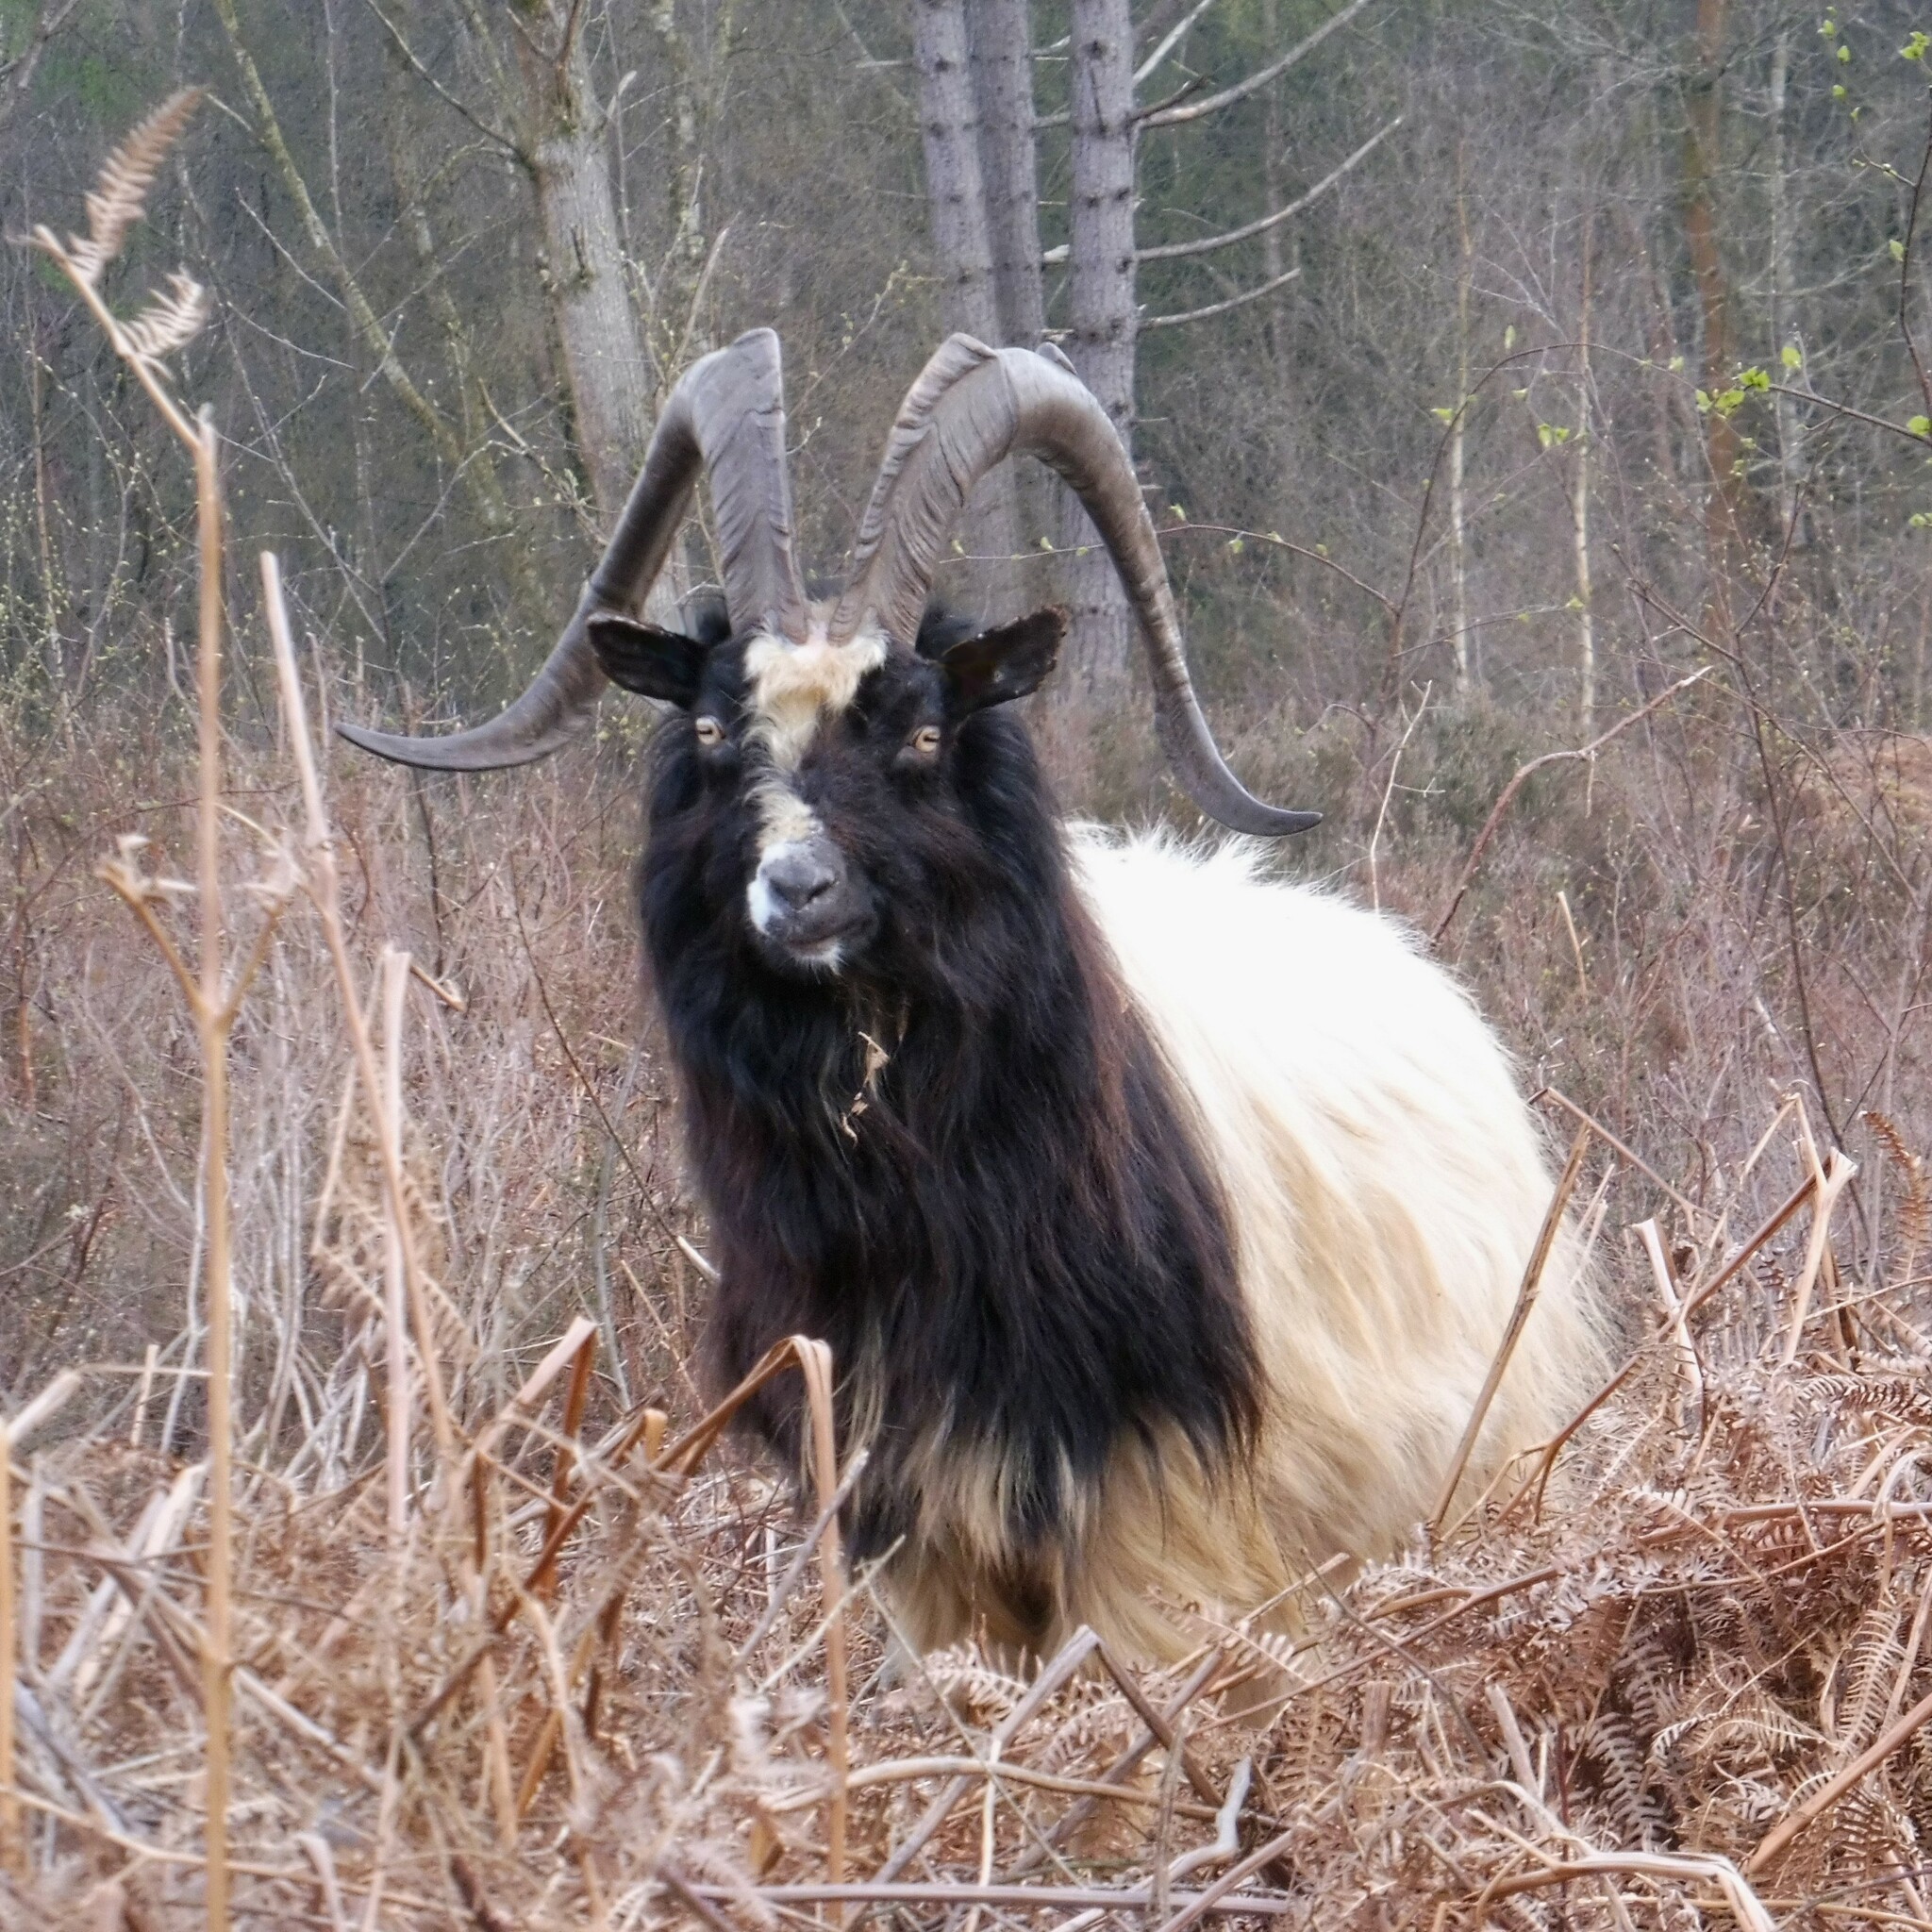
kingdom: Animalia
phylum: Chordata
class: Mammalia
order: Artiodactyla
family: Bovidae
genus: Capra
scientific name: Capra hircus
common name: Domestic goat
